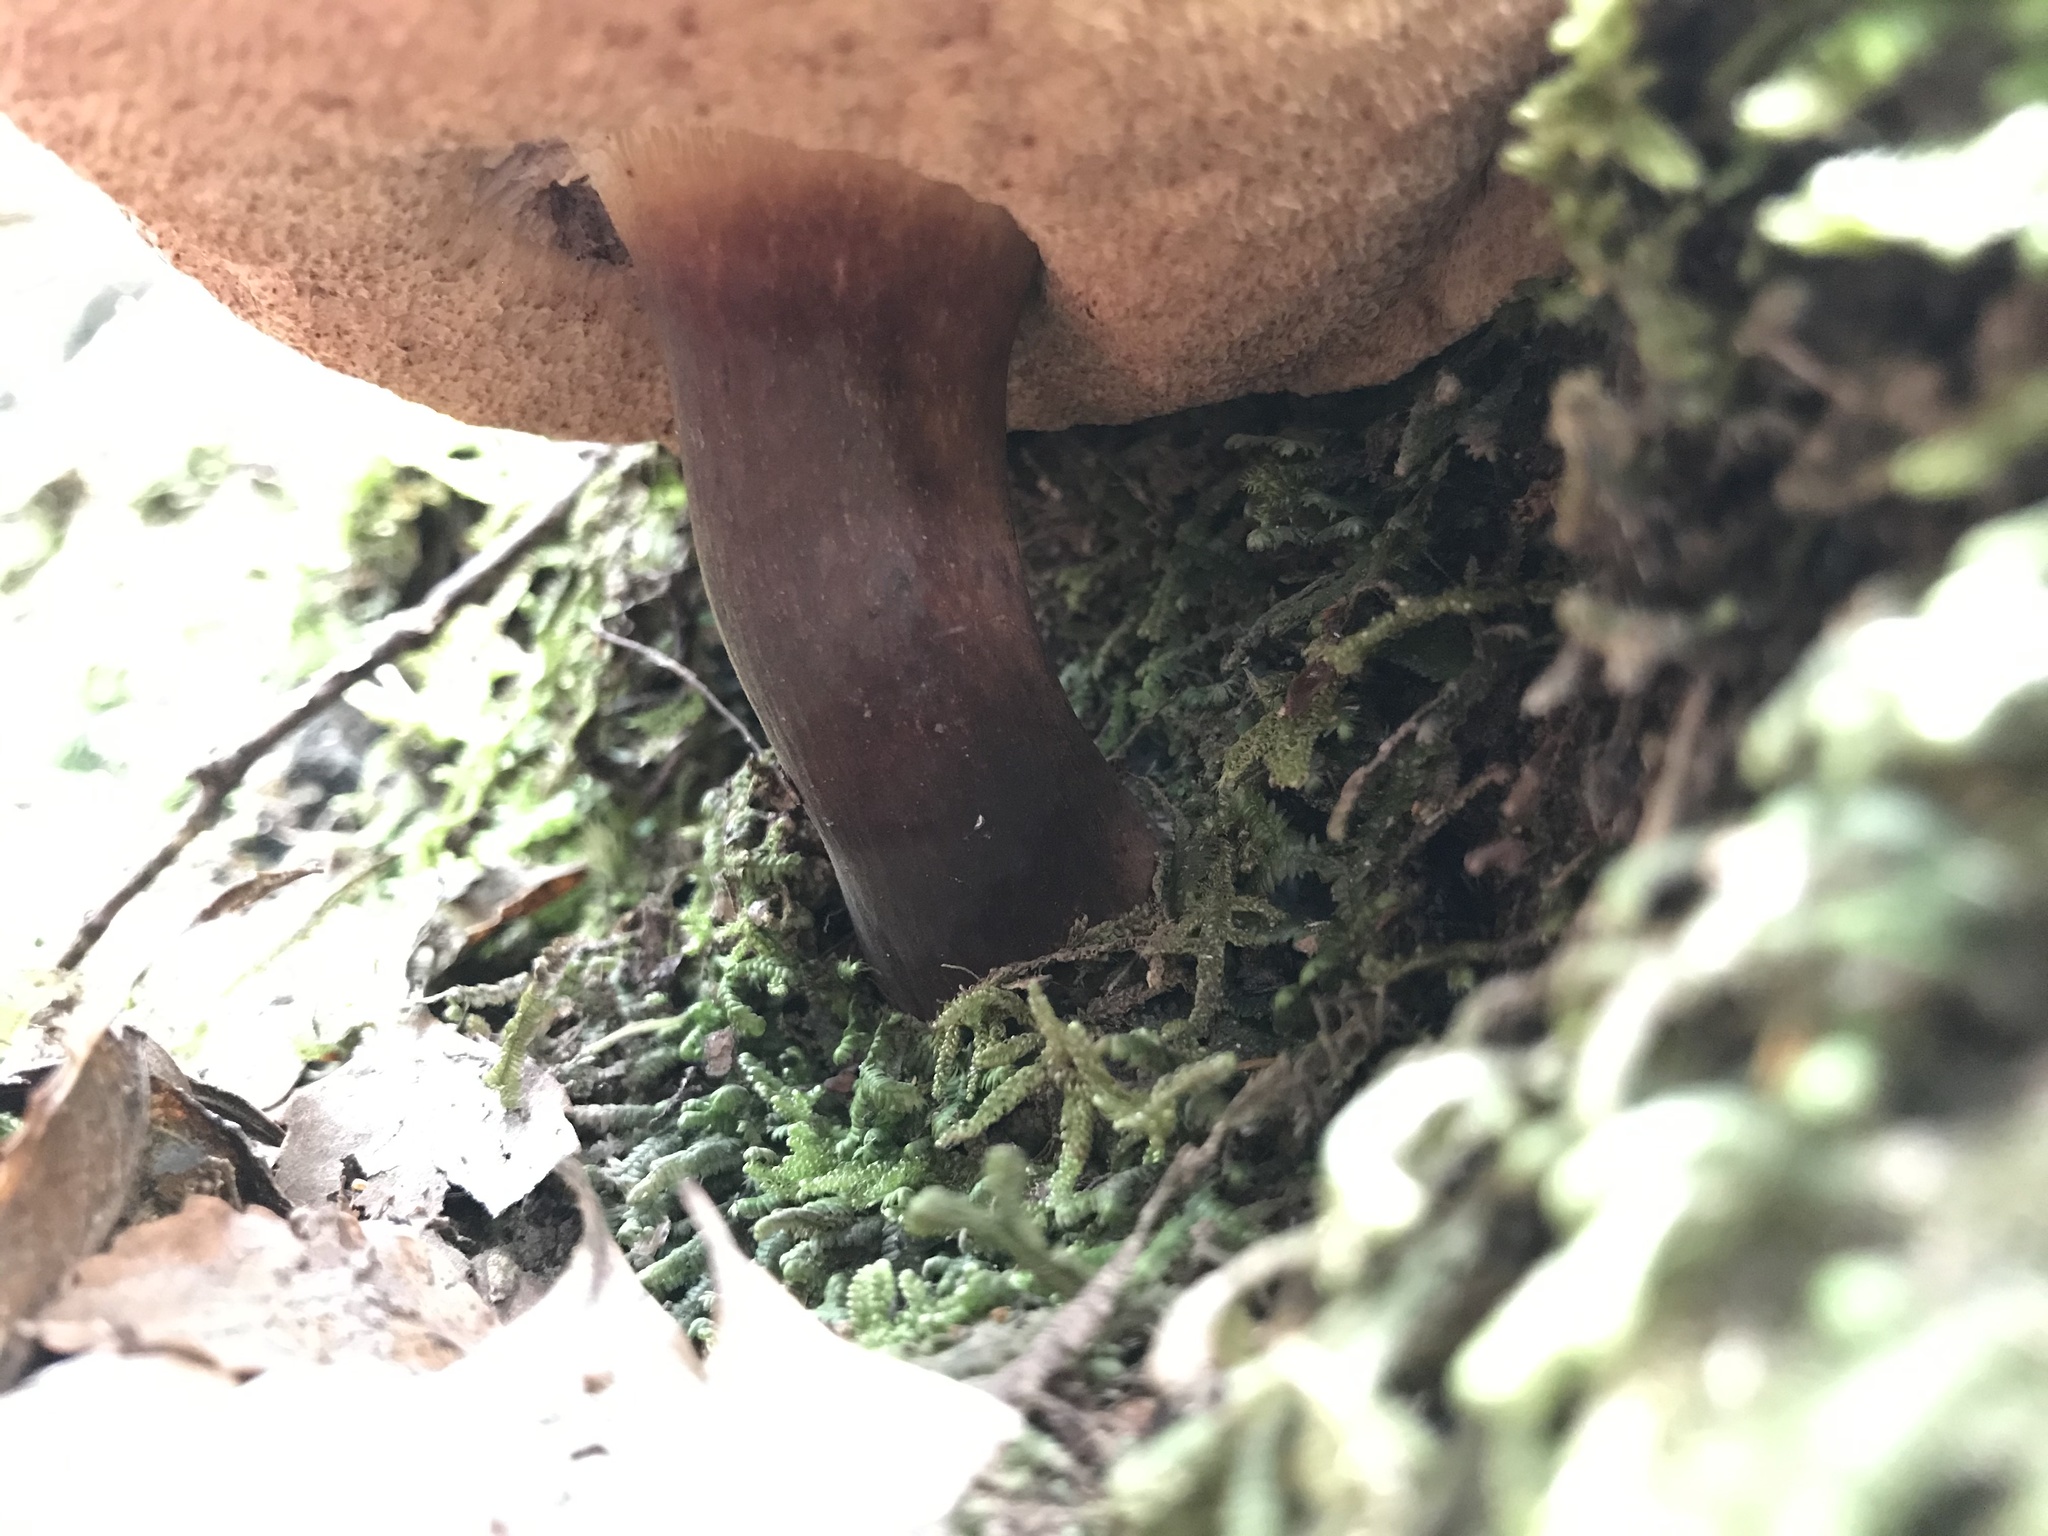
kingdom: Fungi
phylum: Basidiomycota
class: Agaricomycetes
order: Boletales
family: Boletaceae
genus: Porphyrellus
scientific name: Porphyrellus formosus
